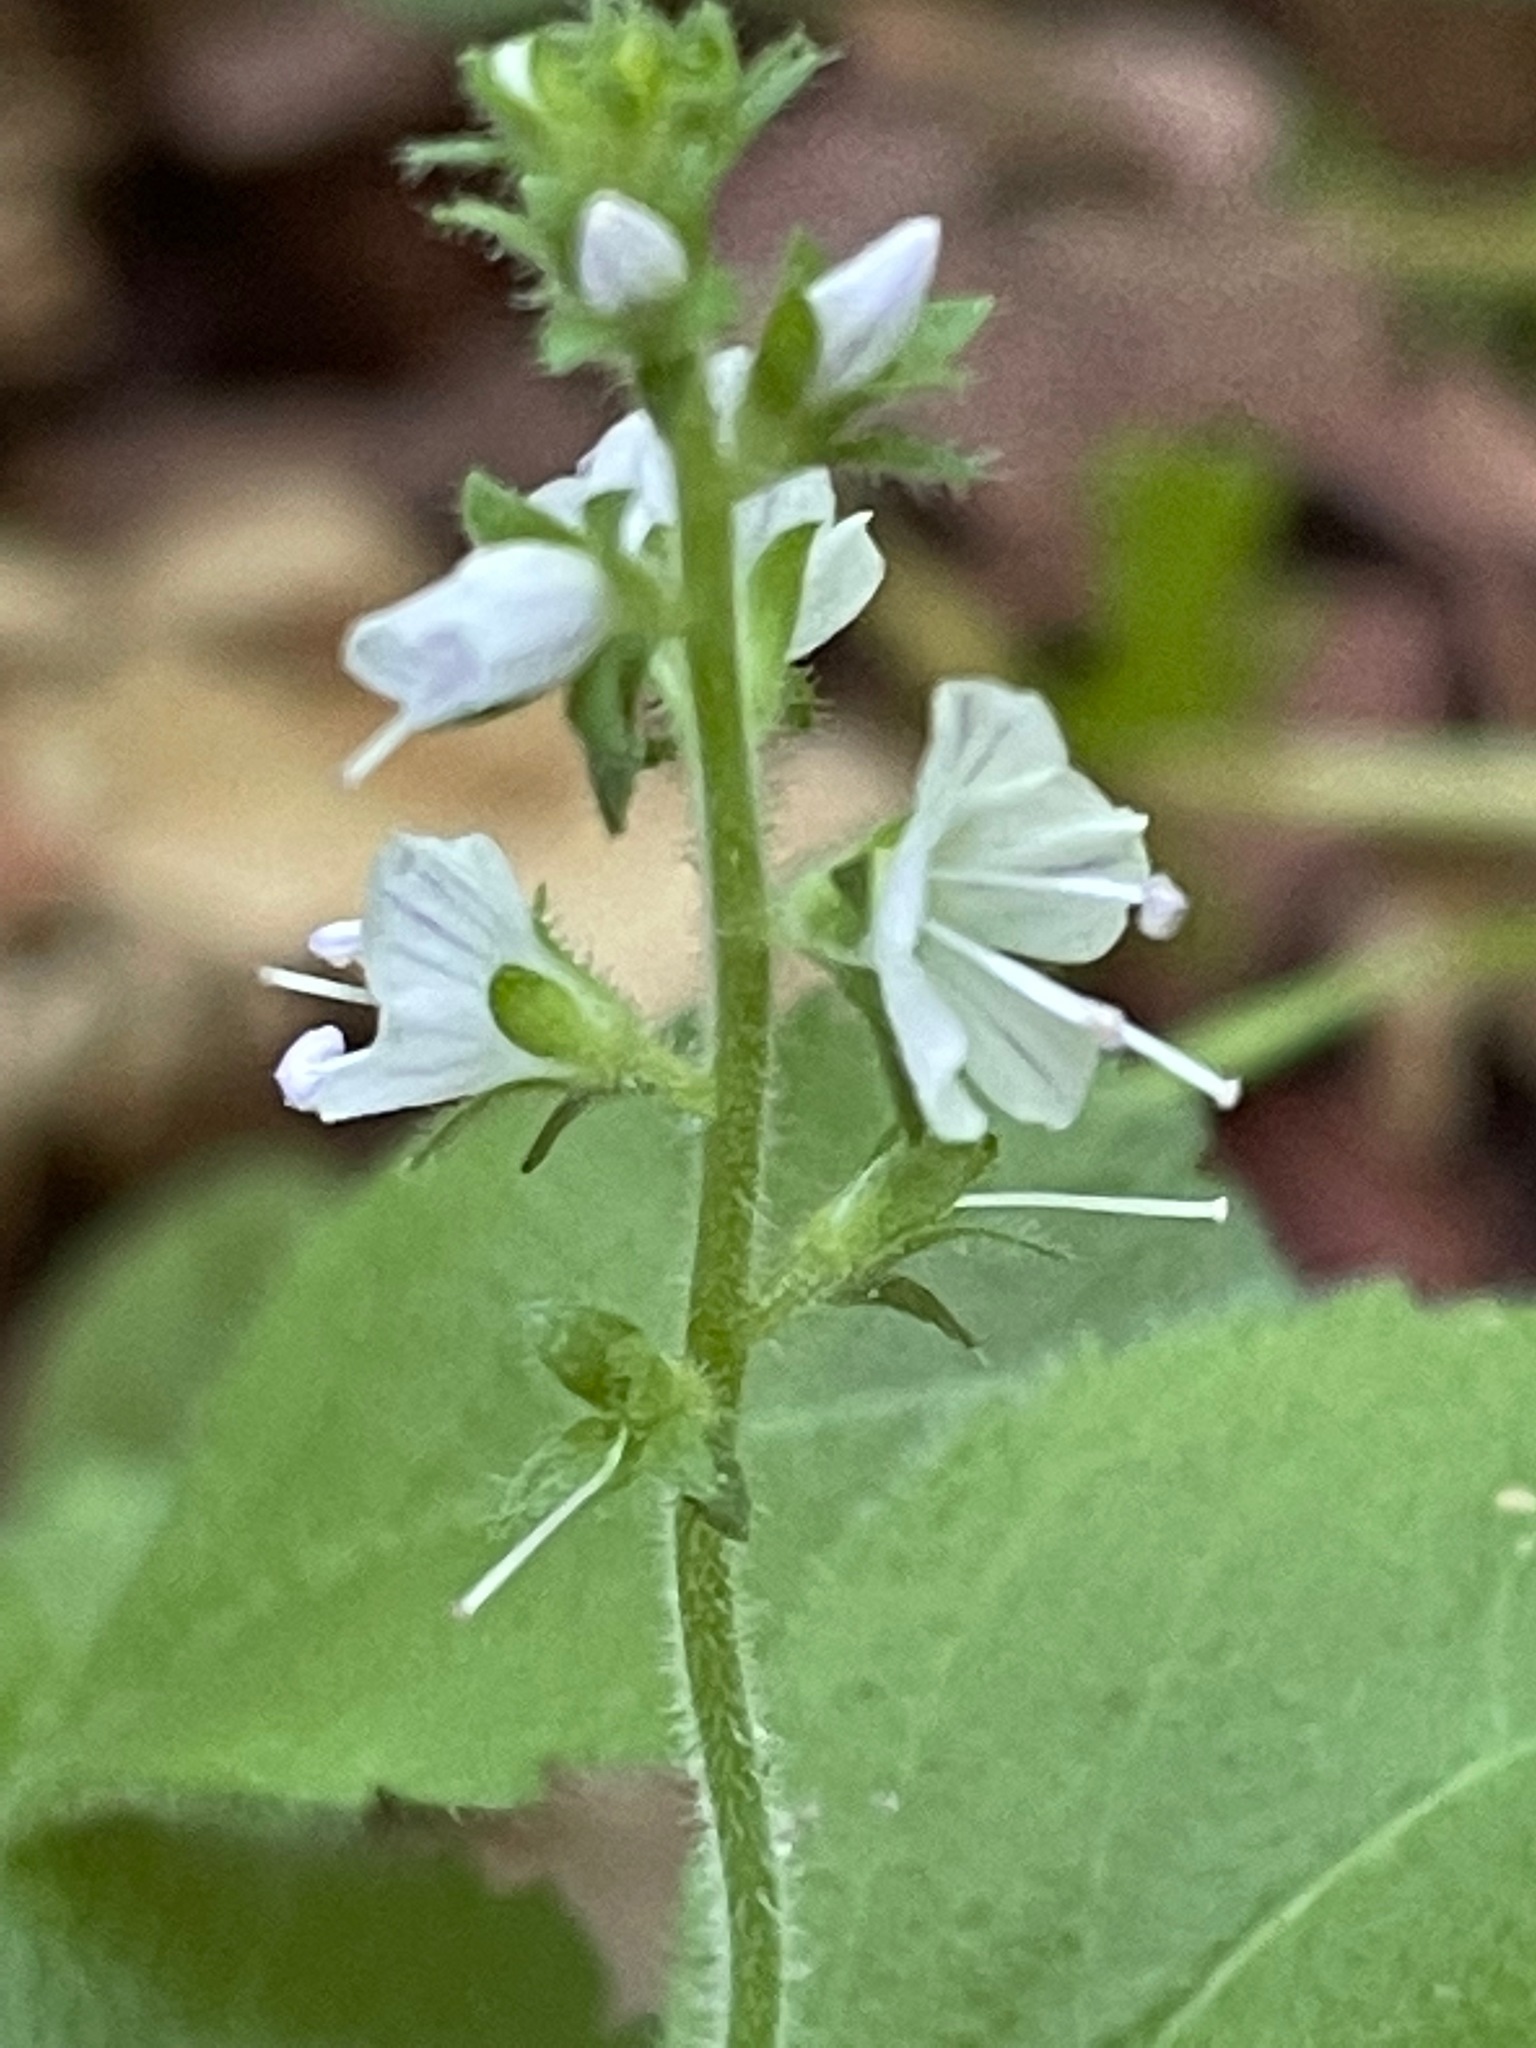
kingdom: Plantae
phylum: Tracheophyta
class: Magnoliopsida
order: Lamiales
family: Plantaginaceae
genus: Veronica
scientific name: Veronica officinalis
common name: Common speedwell
